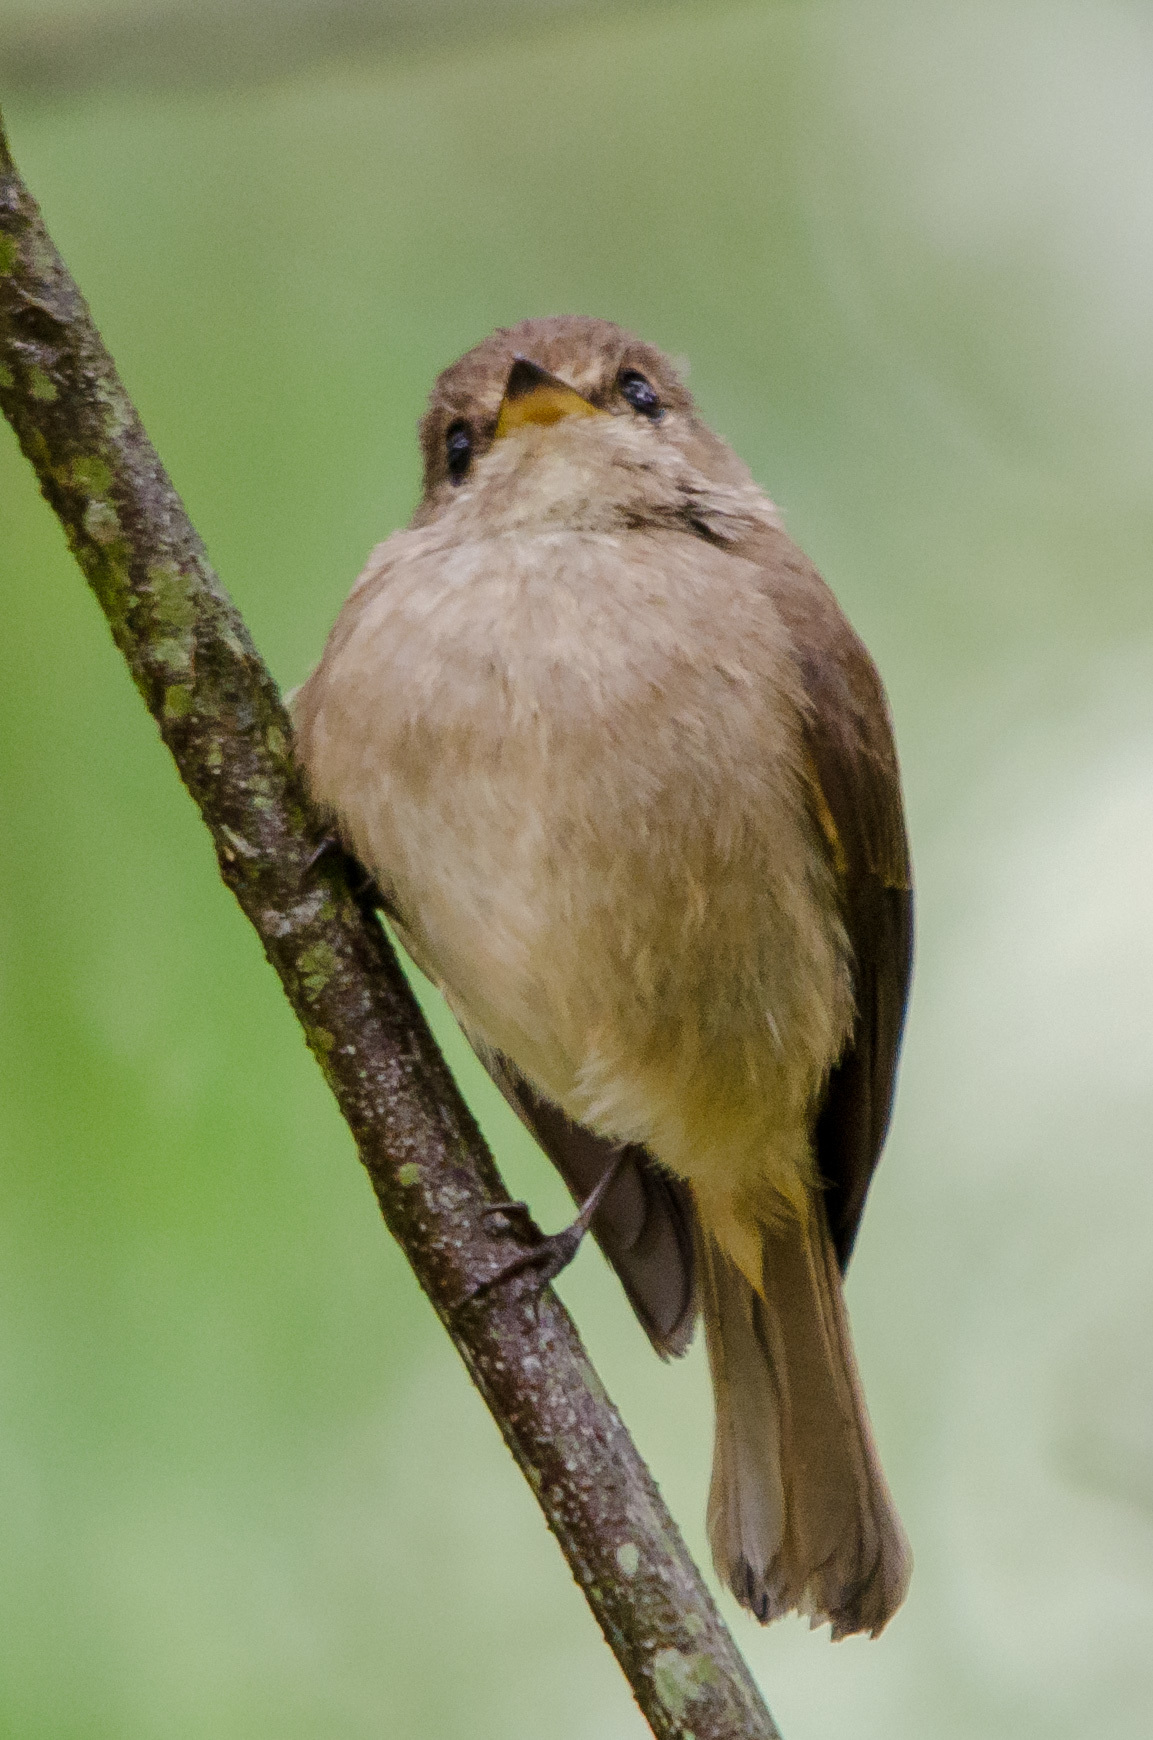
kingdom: Animalia
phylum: Chordata
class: Aves
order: Passeriformes
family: Muscicapidae
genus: Muscicapa
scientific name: Muscicapa adusta
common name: African dusky flycatcher
